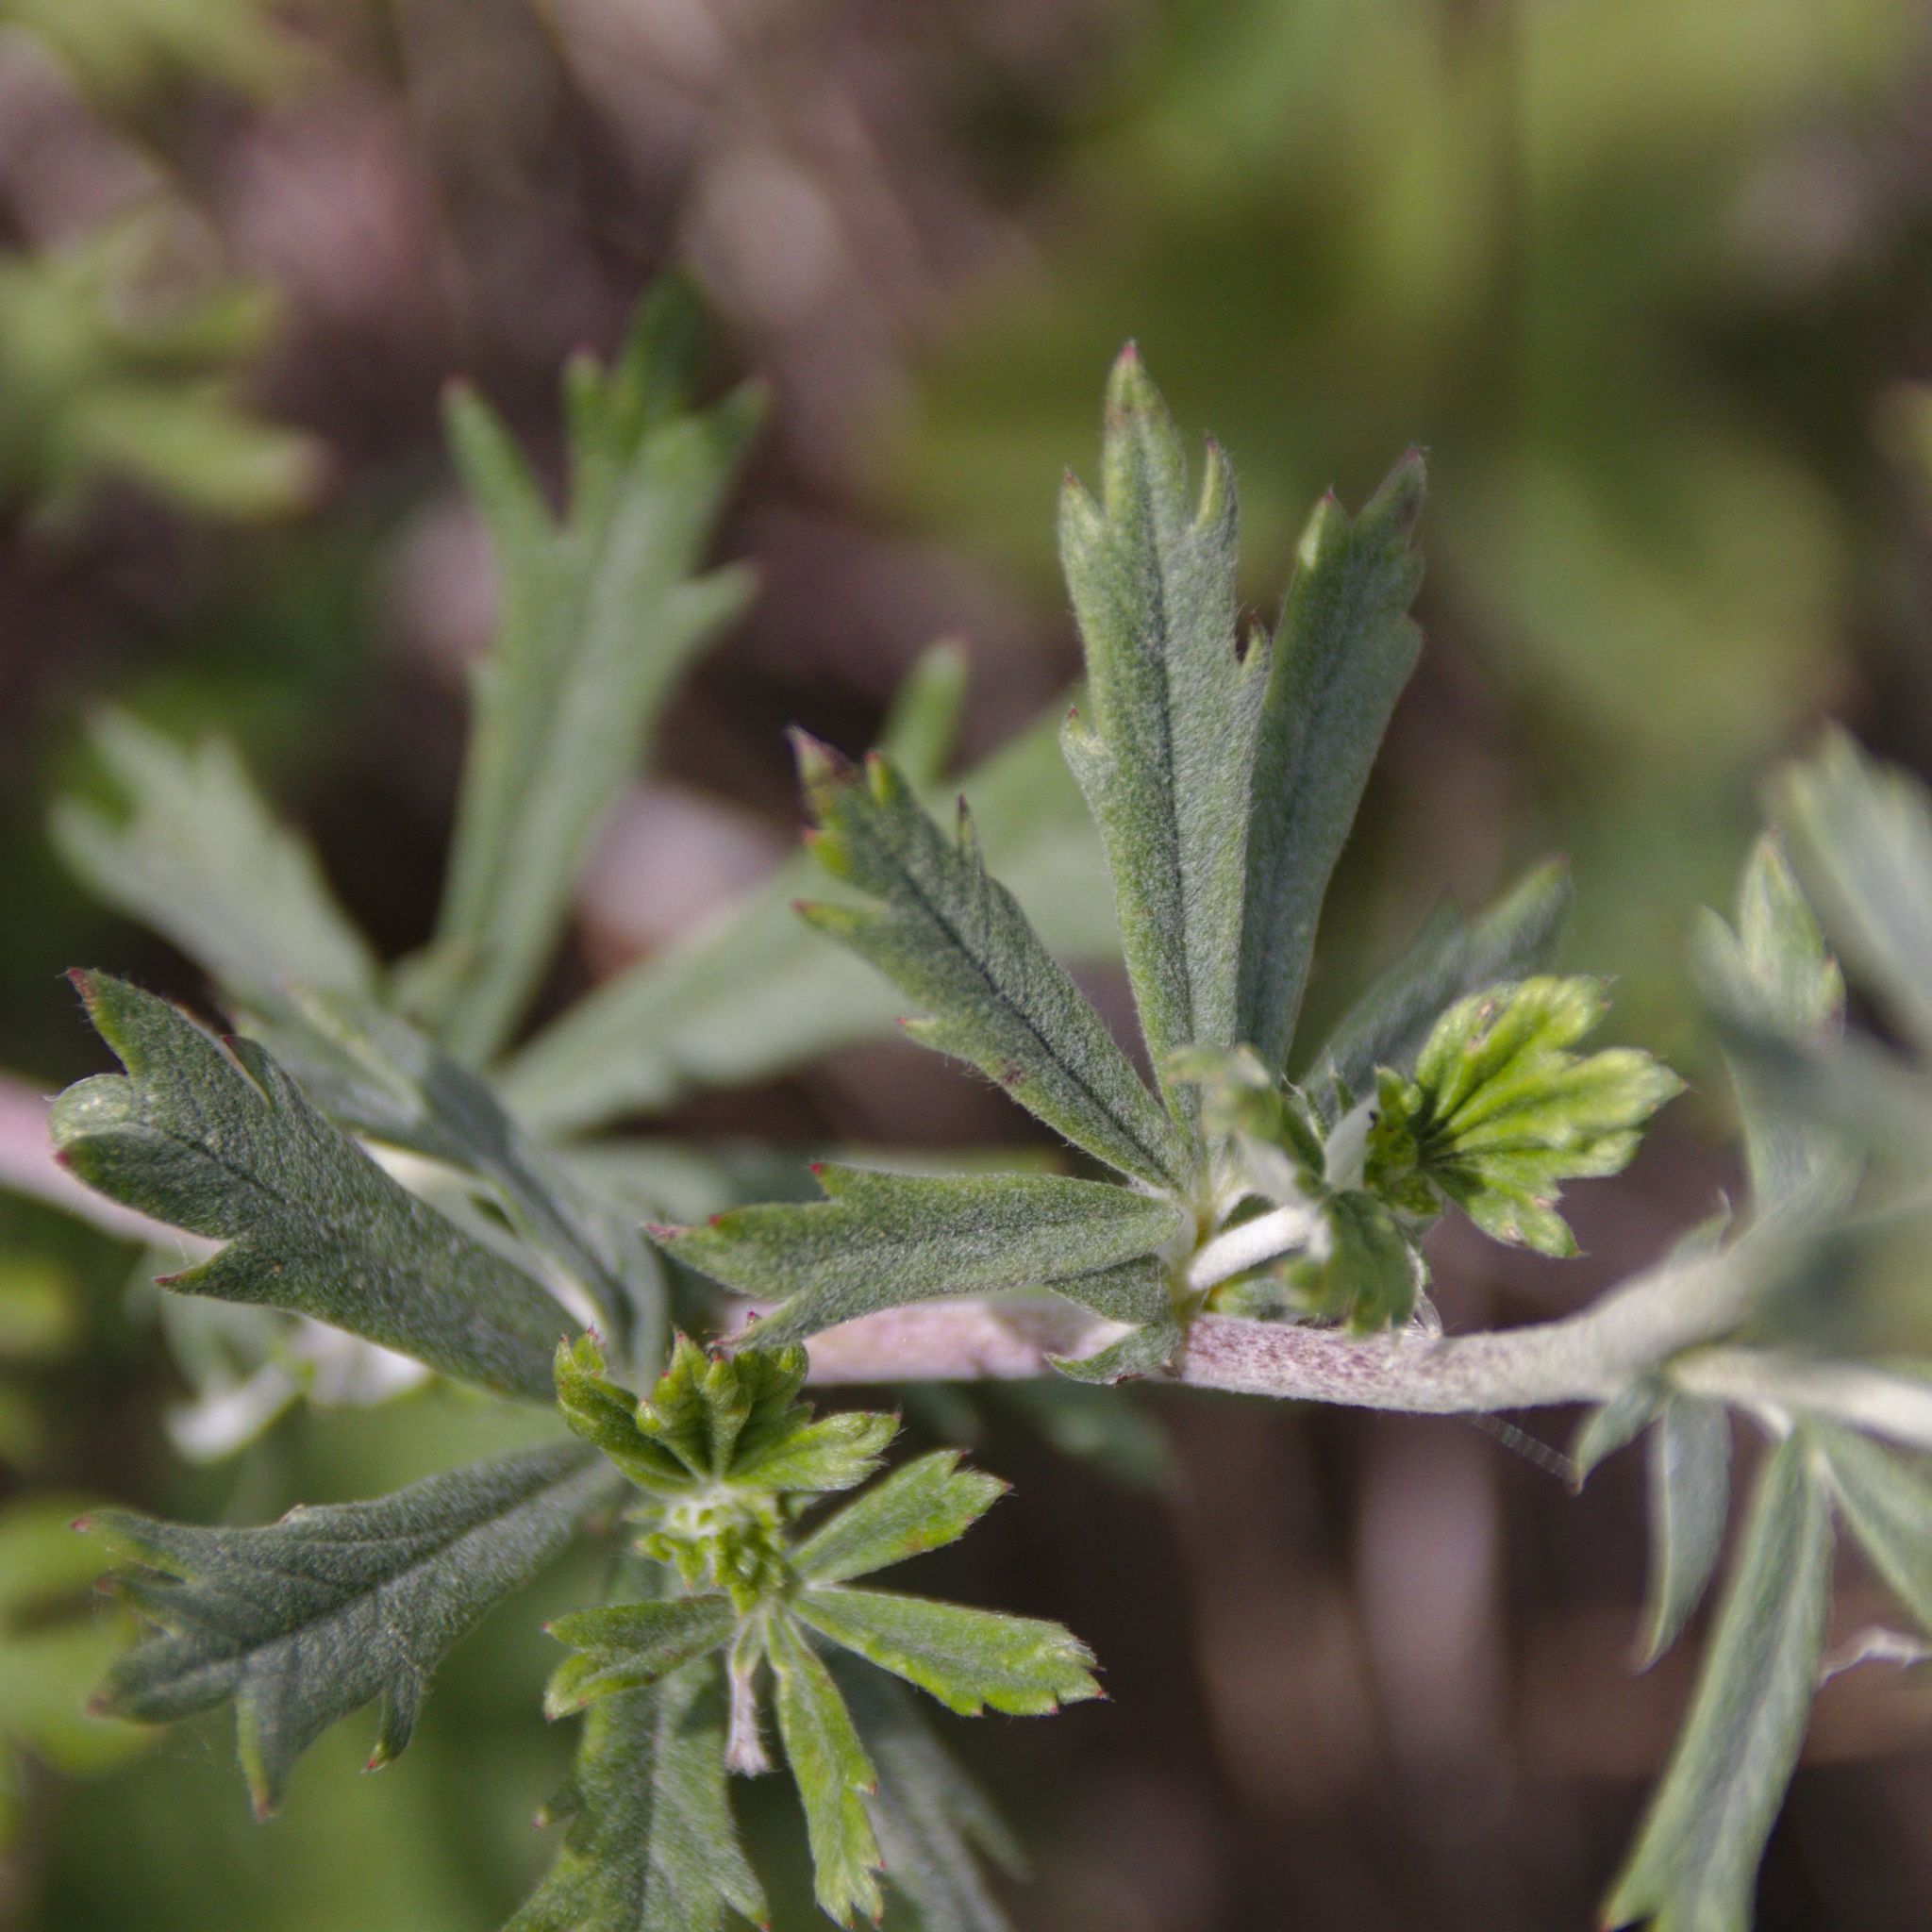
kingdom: Plantae
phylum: Tracheophyta
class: Magnoliopsida
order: Rosales
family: Rosaceae
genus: Potentilla
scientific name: Potentilla argentea
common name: Hoary cinquefoil
